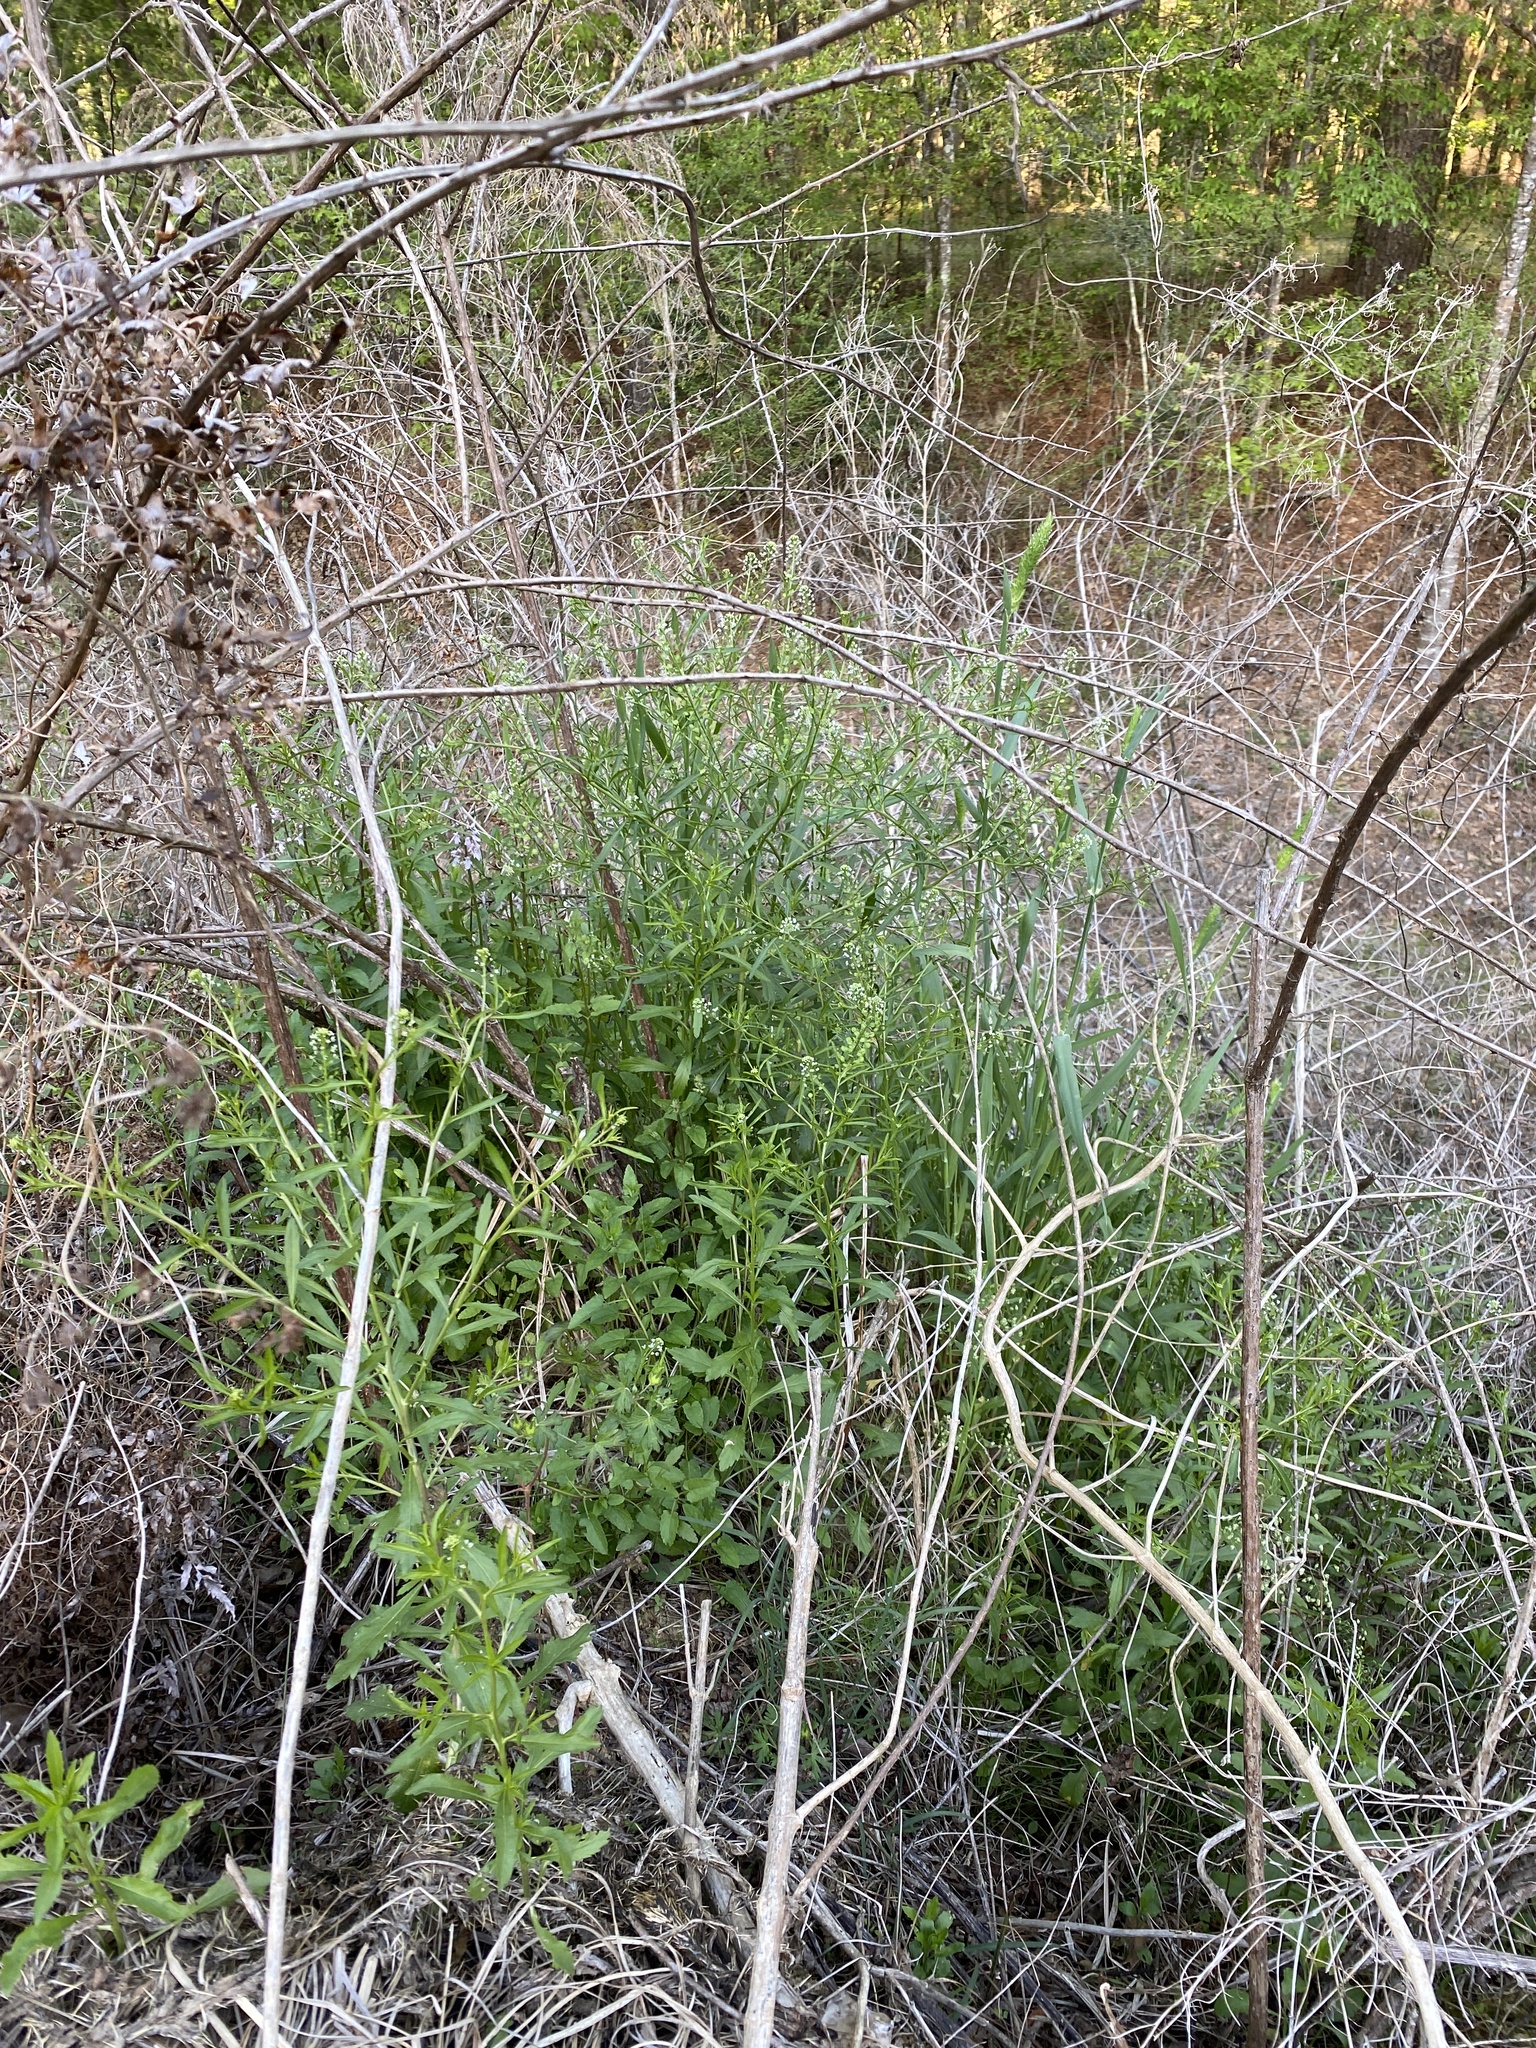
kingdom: Plantae
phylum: Tracheophyta
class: Magnoliopsida
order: Brassicales
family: Brassicaceae
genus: Lepidium
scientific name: Lepidium virginicum
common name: Least pepperwort
